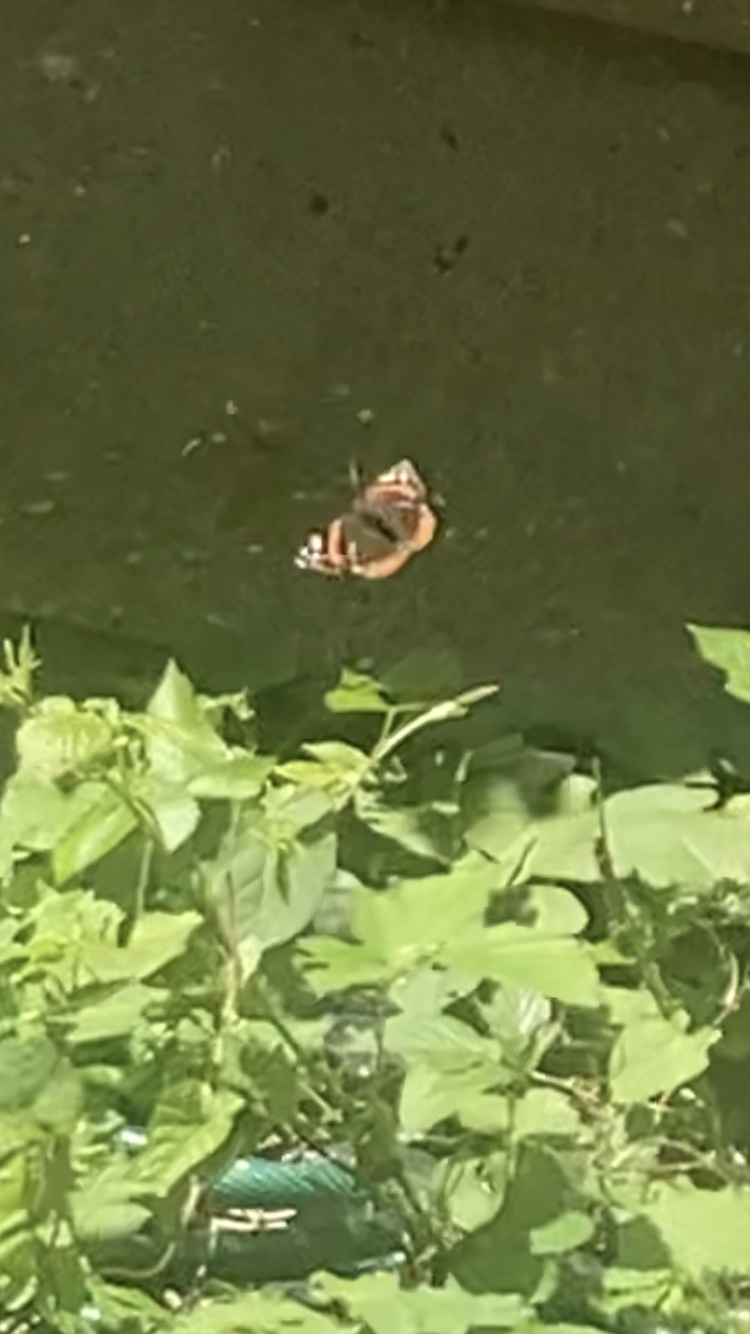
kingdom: Animalia
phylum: Arthropoda
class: Insecta
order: Lepidoptera
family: Nymphalidae
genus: Vanessa
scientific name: Vanessa atalanta
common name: Red admiral
